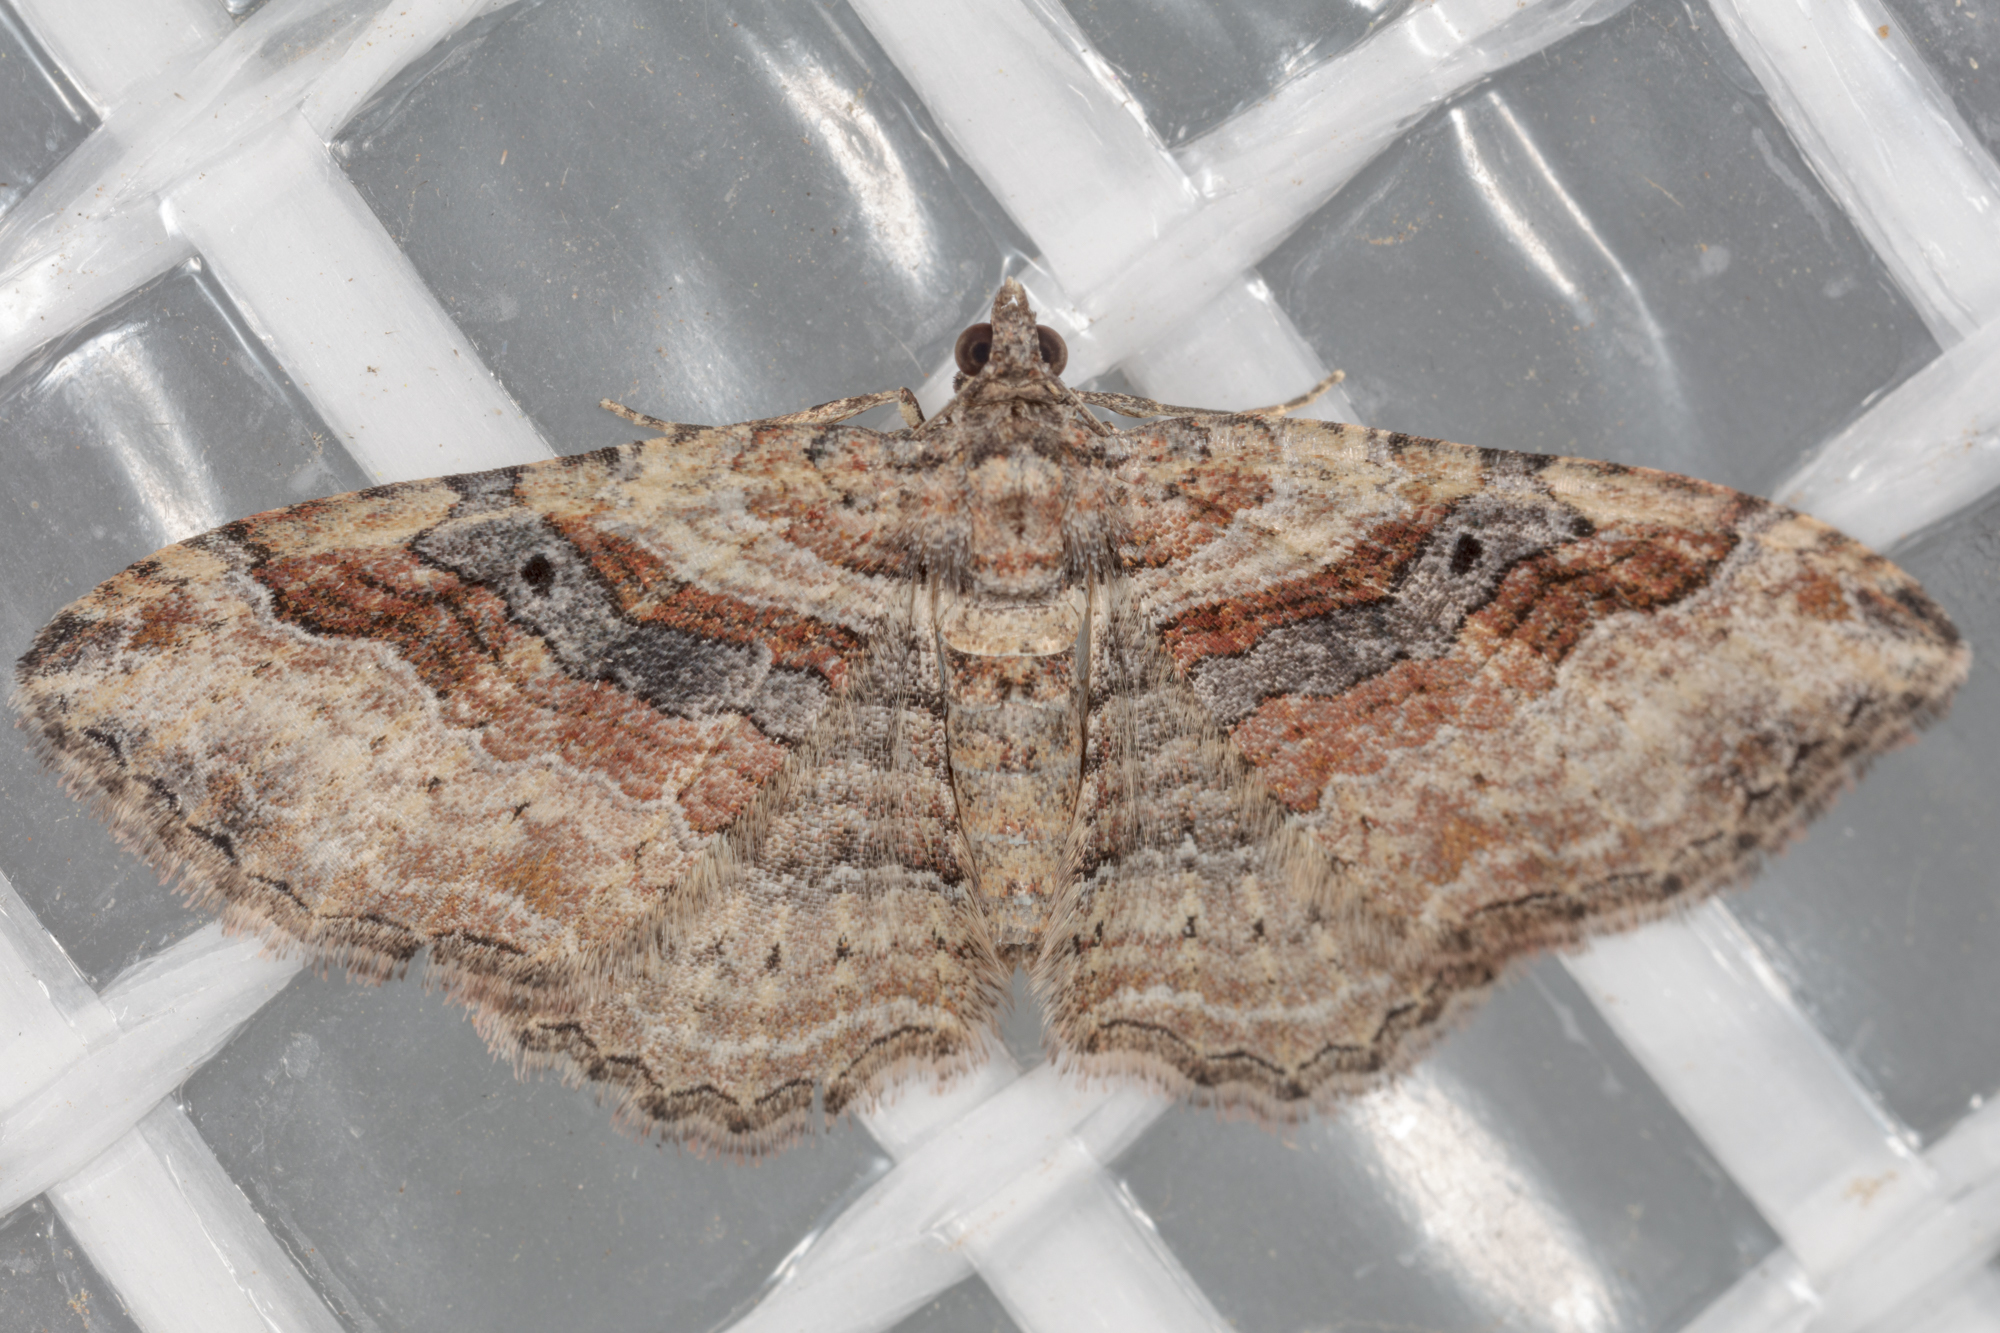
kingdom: Animalia
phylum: Arthropoda
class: Insecta
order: Lepidoptera
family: Geometridae
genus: Costaconvexa
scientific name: Costaconvexa centrostrigaria
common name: Bent-line carpet
